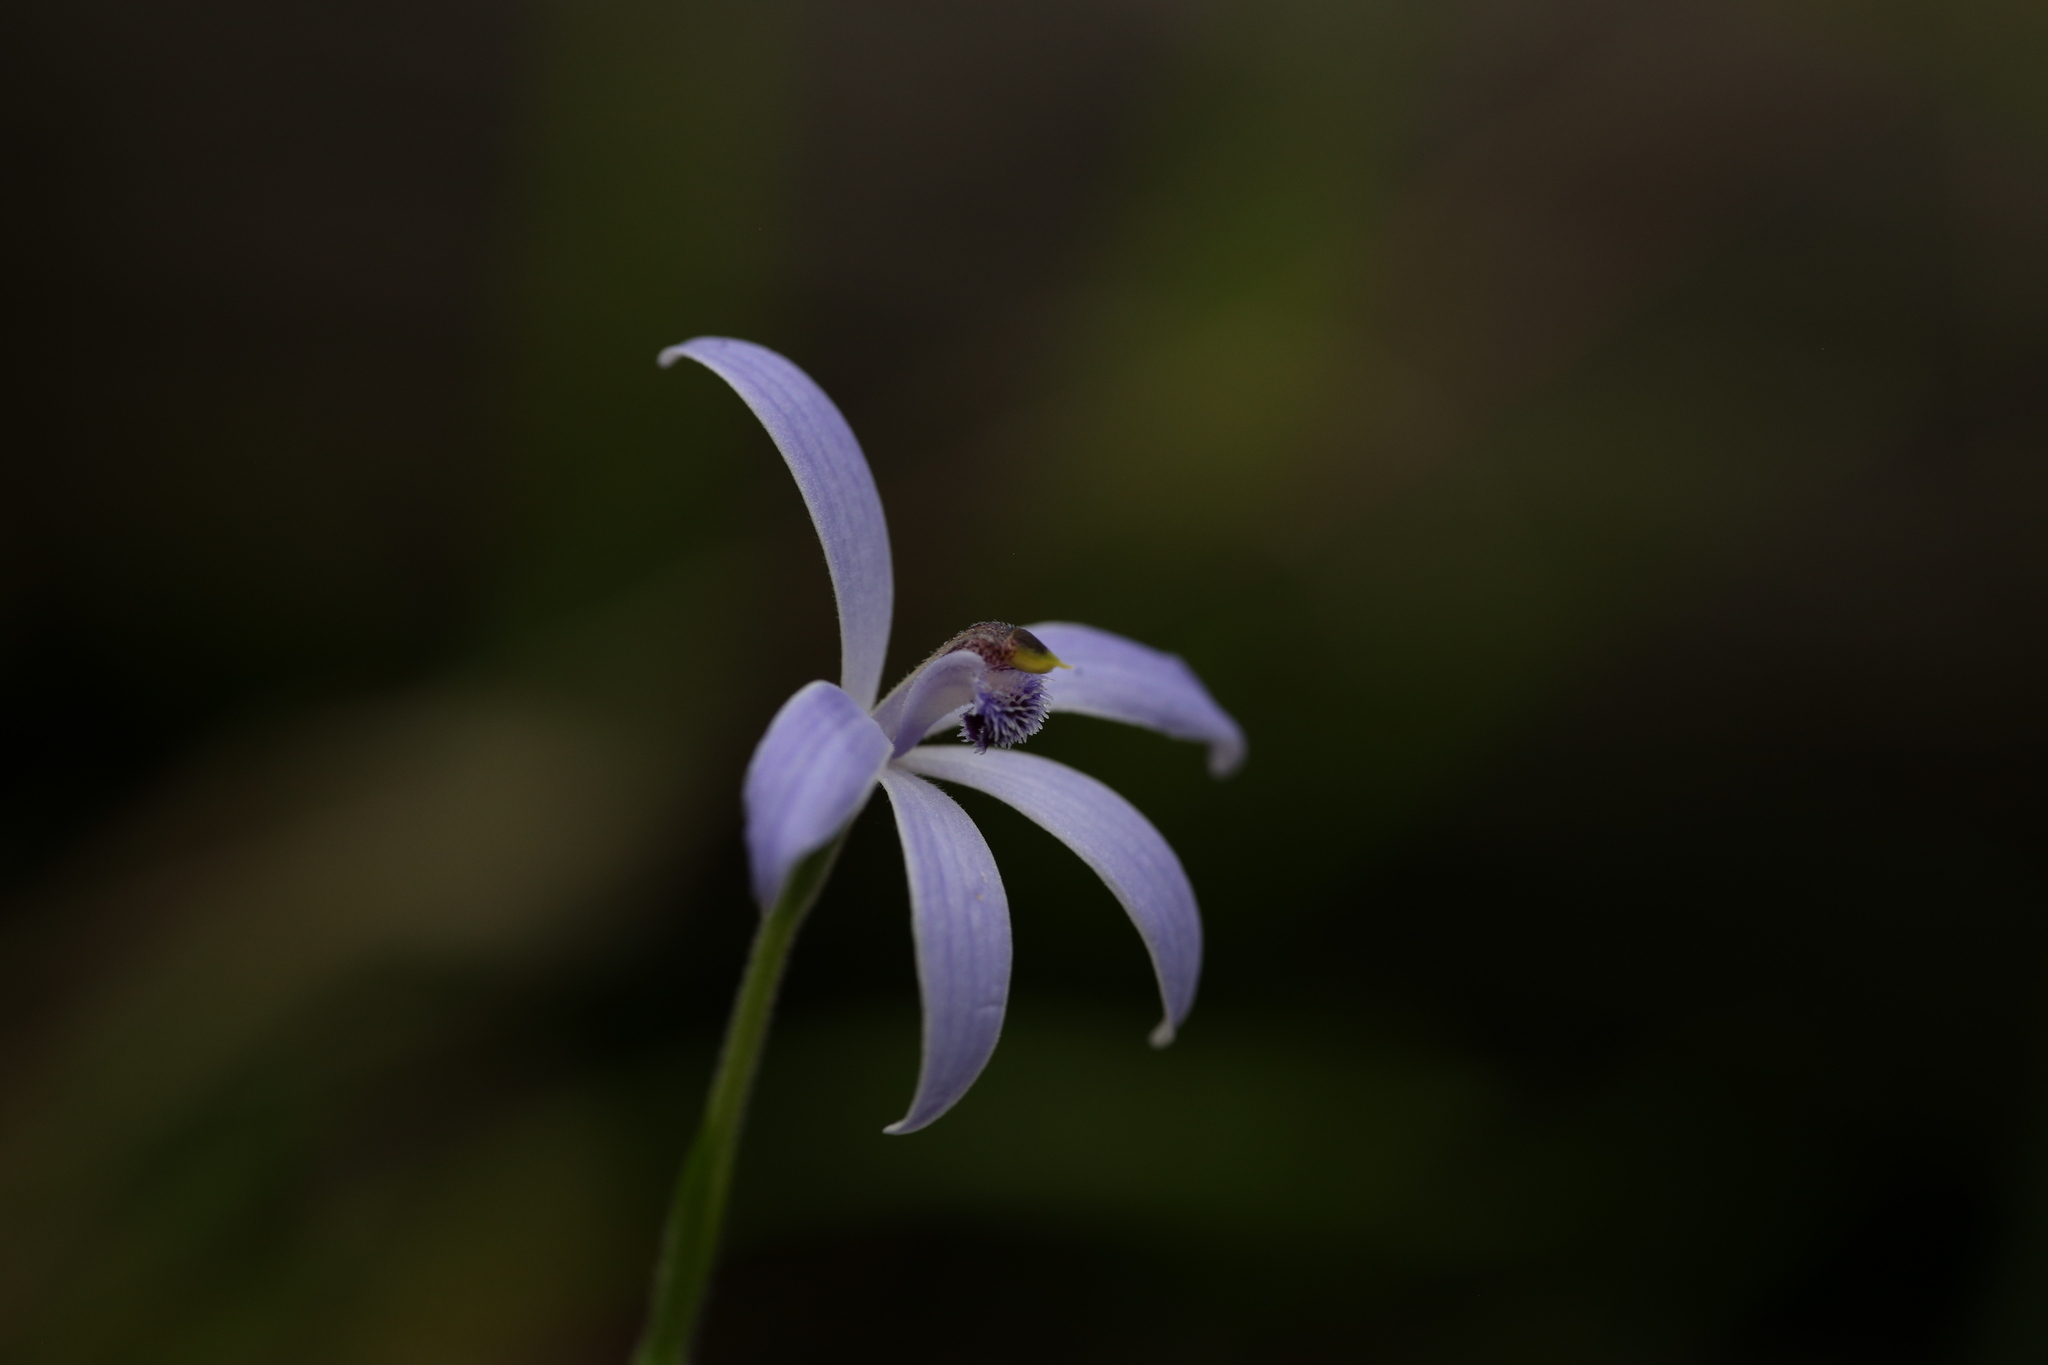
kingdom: Plantae
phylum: Tracheophyta
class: Liliopsida
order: Asparagales
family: Orchidaceae
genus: Pheladenia
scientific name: Pheladenia deformis
